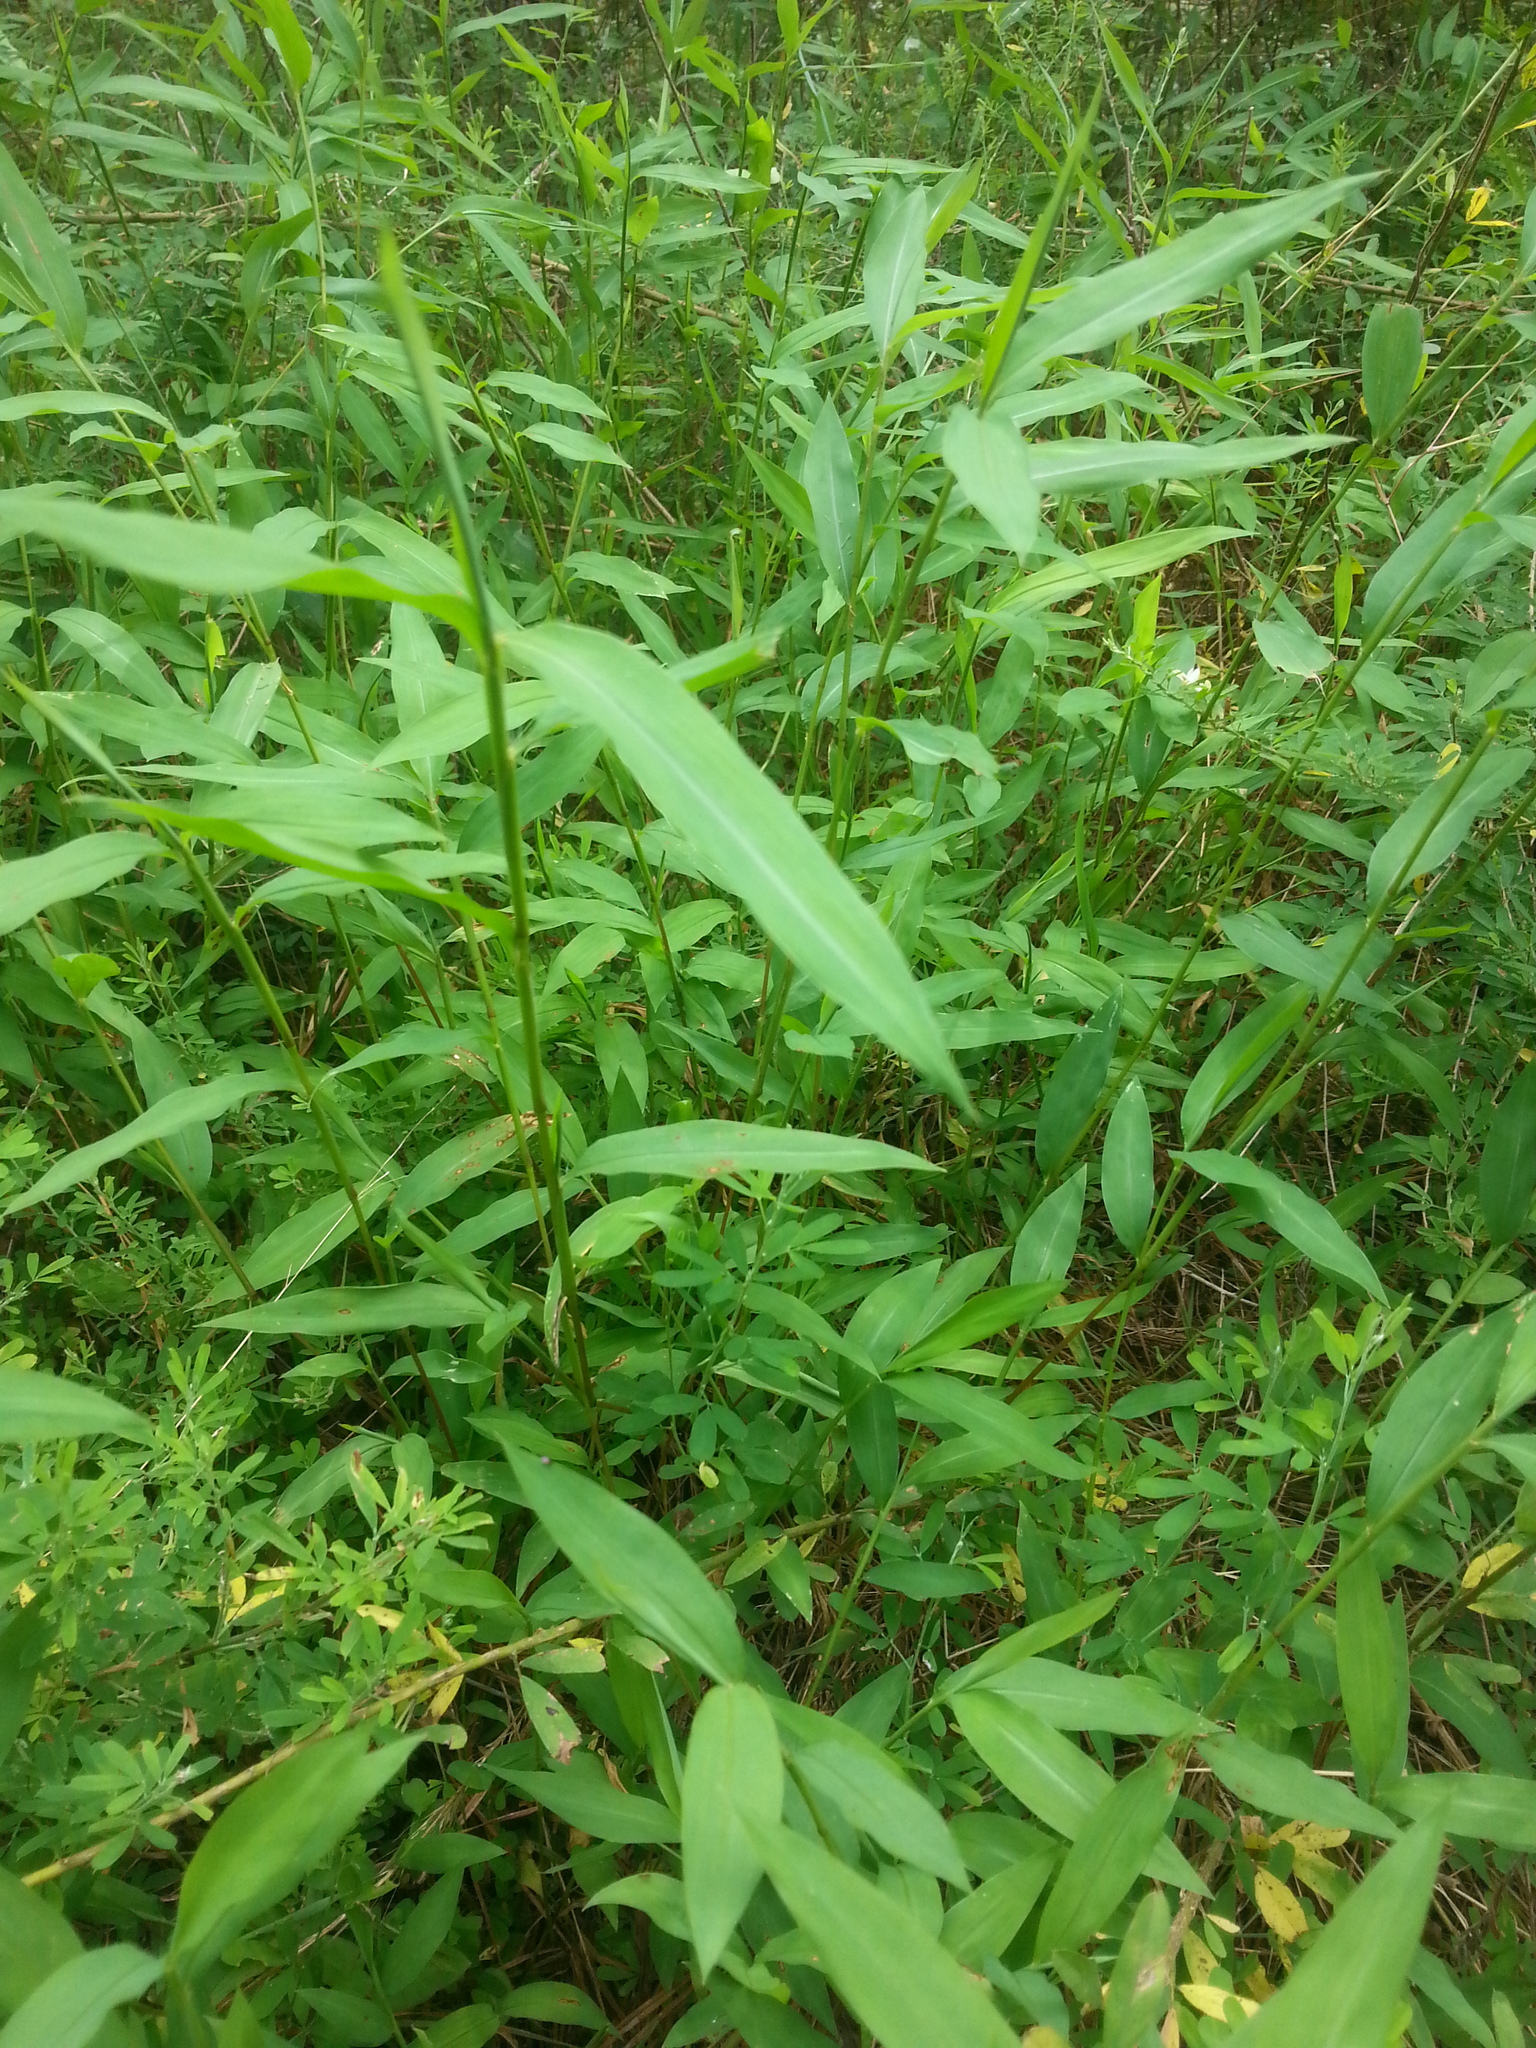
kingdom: Plantae
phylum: Tracheophyta
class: Liliopsida
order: Poales
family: Poaceae
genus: Microstegium
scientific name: Microstegium vimineum
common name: Japanese stiltgrass
